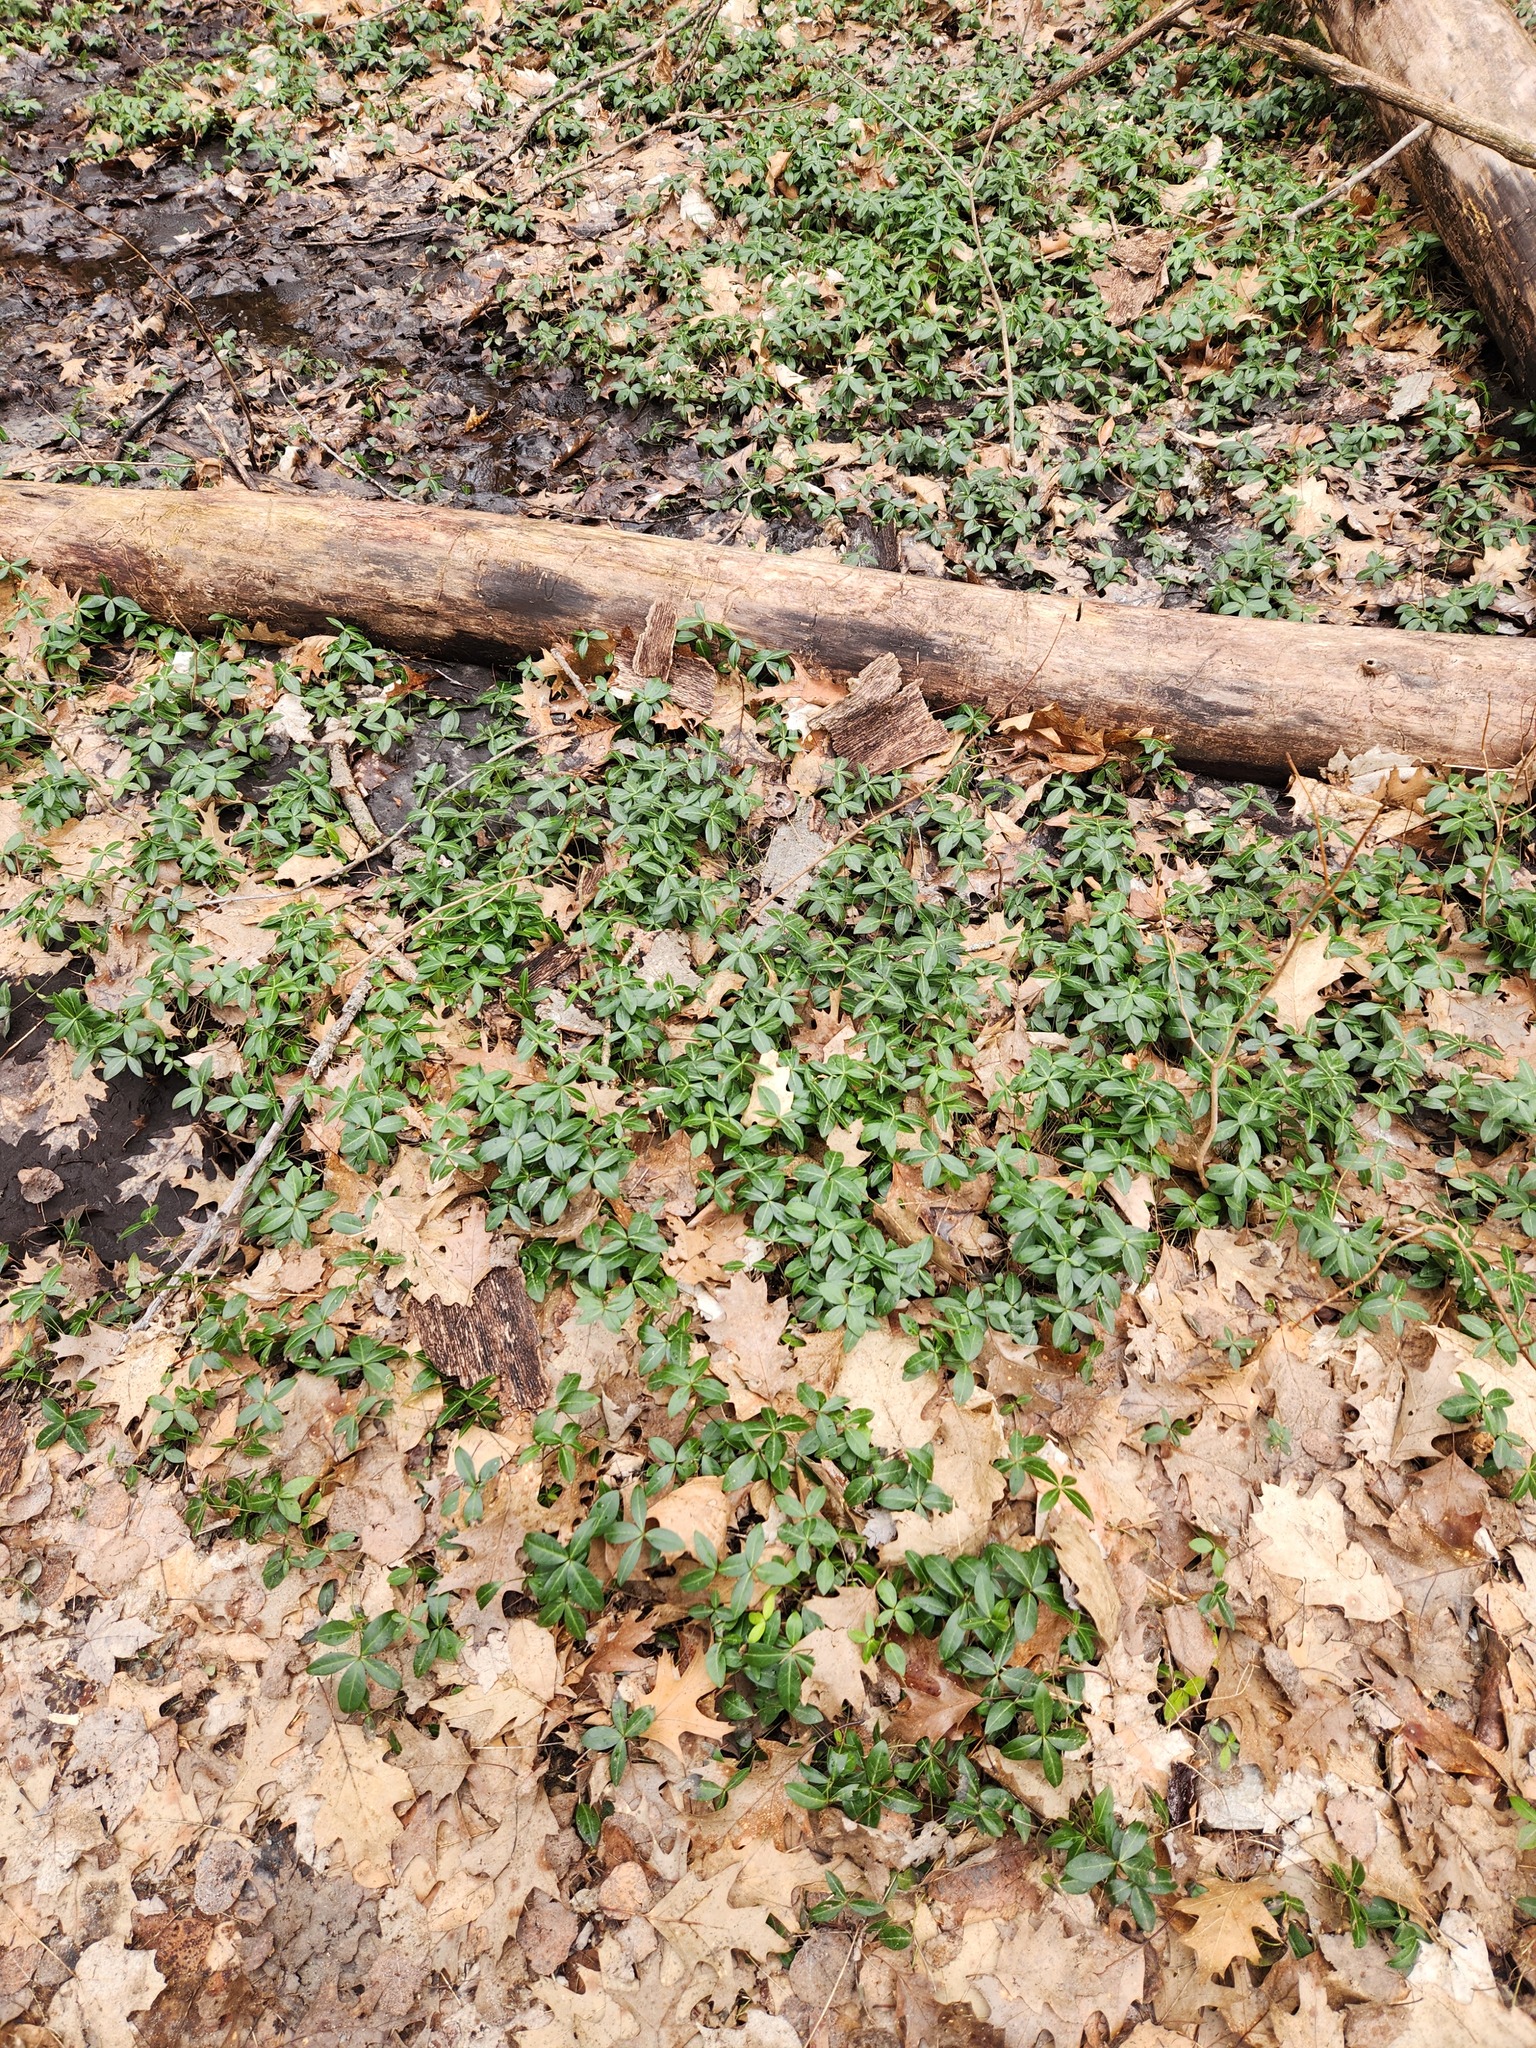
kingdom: Plantae
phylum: Tracheophyta
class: Magnoliopsida
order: Gentianales
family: Apocynaceae
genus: Vinca
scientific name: Vinca minor
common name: Lesser periwinkle
